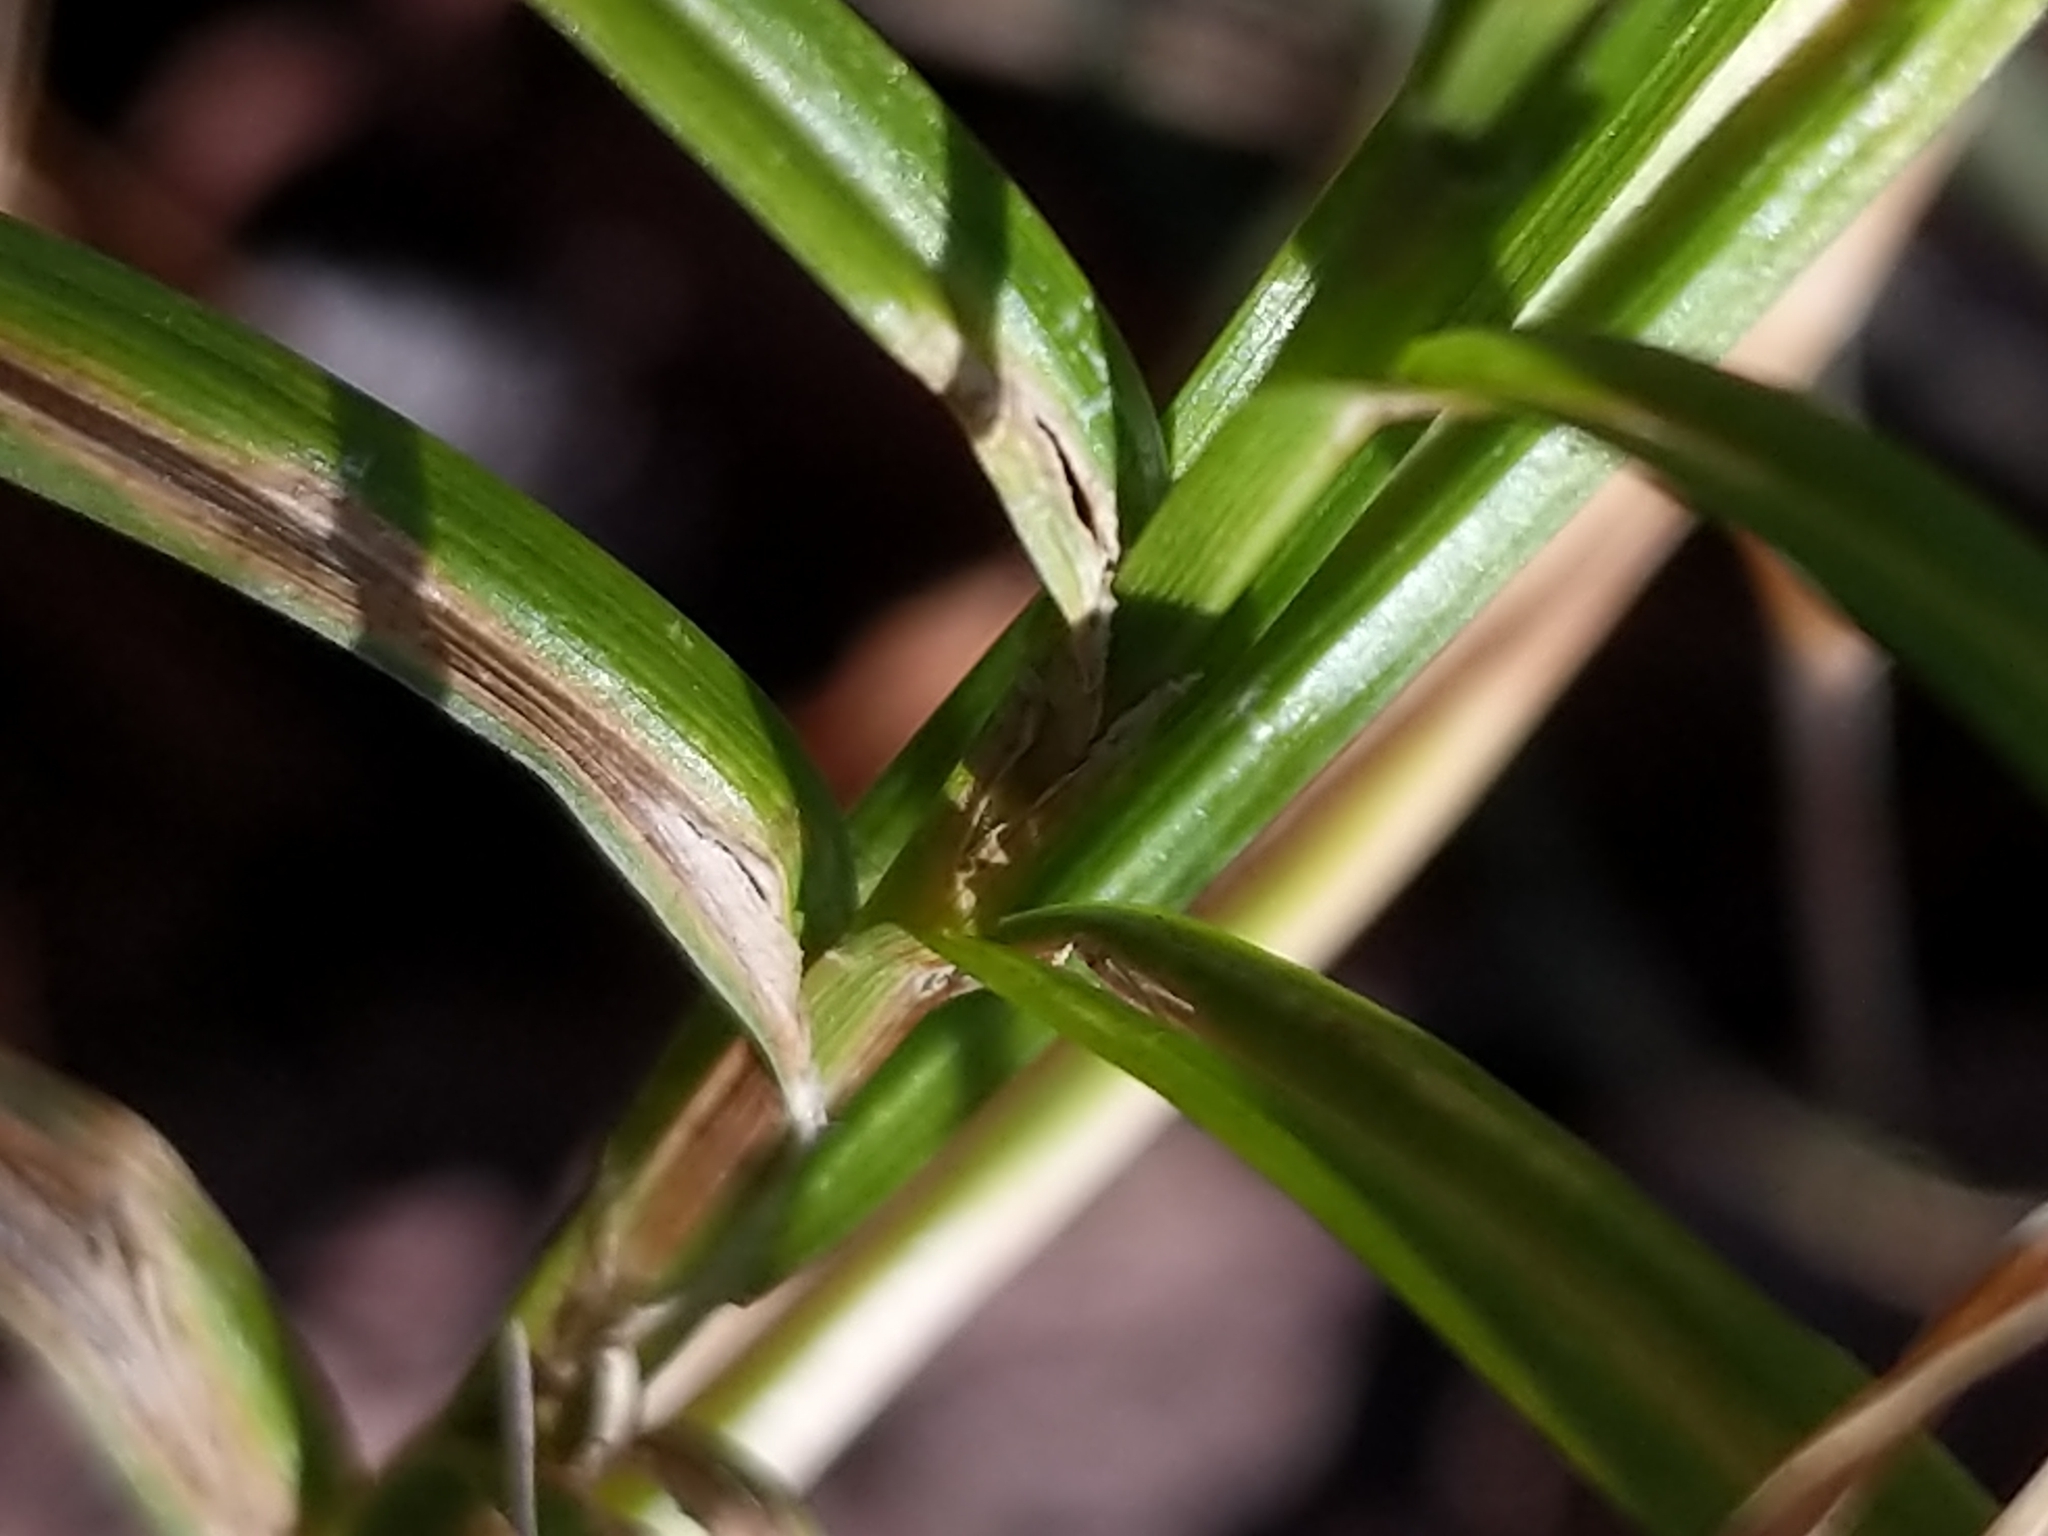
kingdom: Plantae
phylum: Tracheophyta
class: Liliopsida
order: Poales
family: Cyperaceae
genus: Dulichium
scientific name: Dulichium arundinaceum
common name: Three-way sedge
